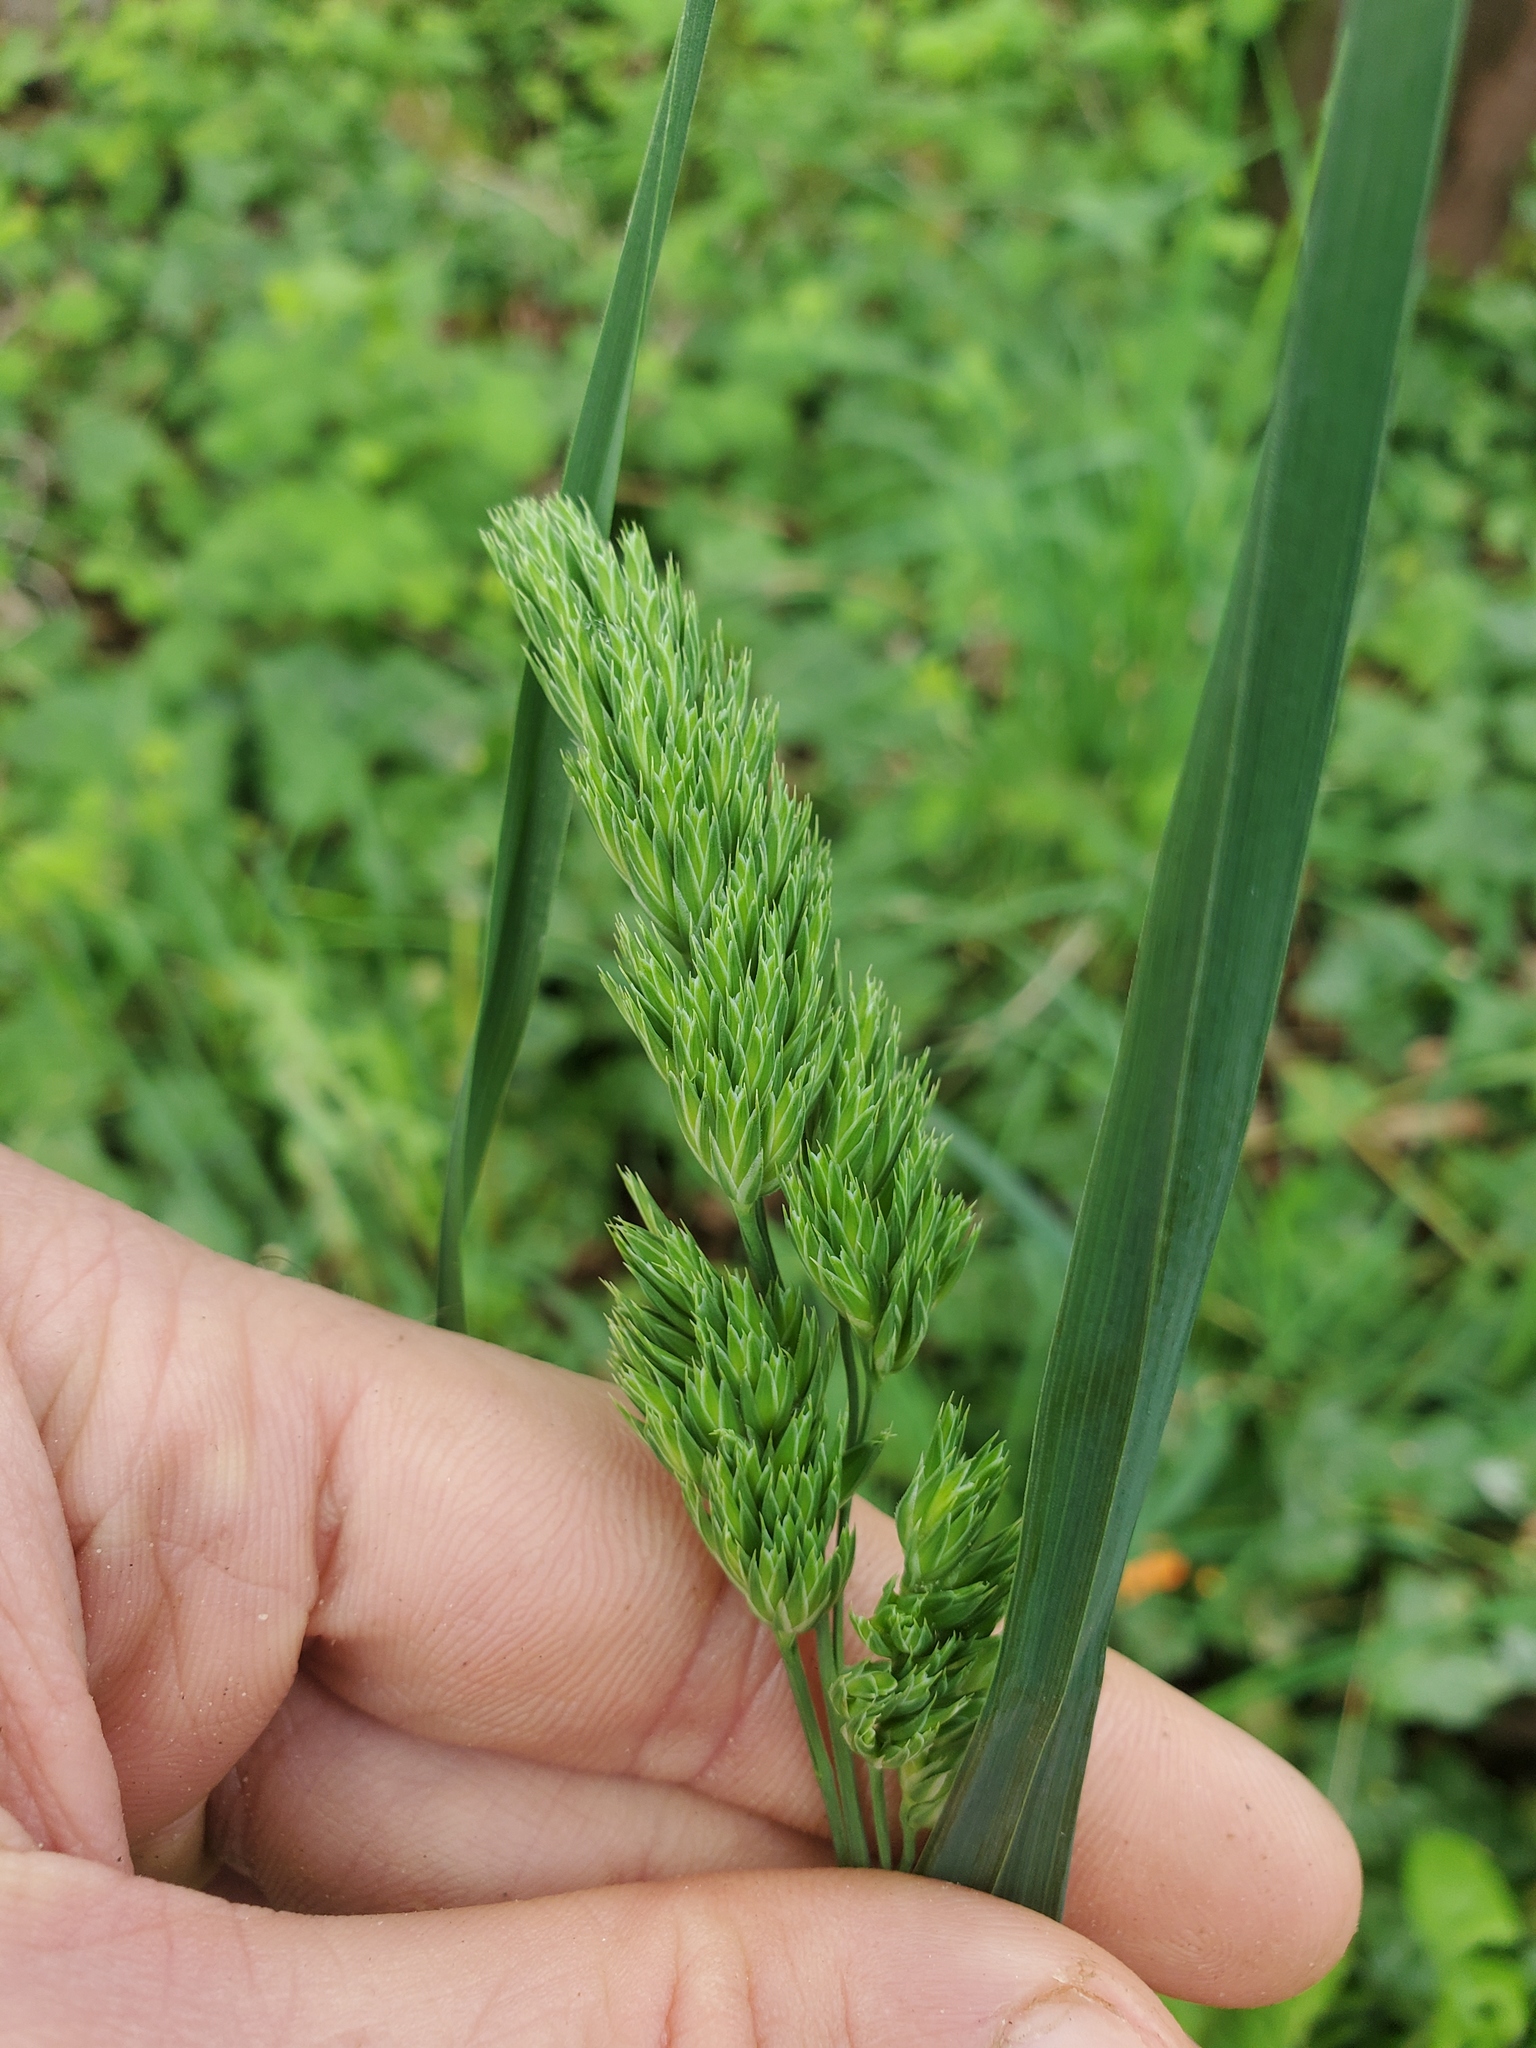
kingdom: Plantae
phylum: Tracheophyta
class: Liliopsida
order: Poales
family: Poaceae
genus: Dactylis
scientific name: Dactylis glomerata
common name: Orchardgrass
